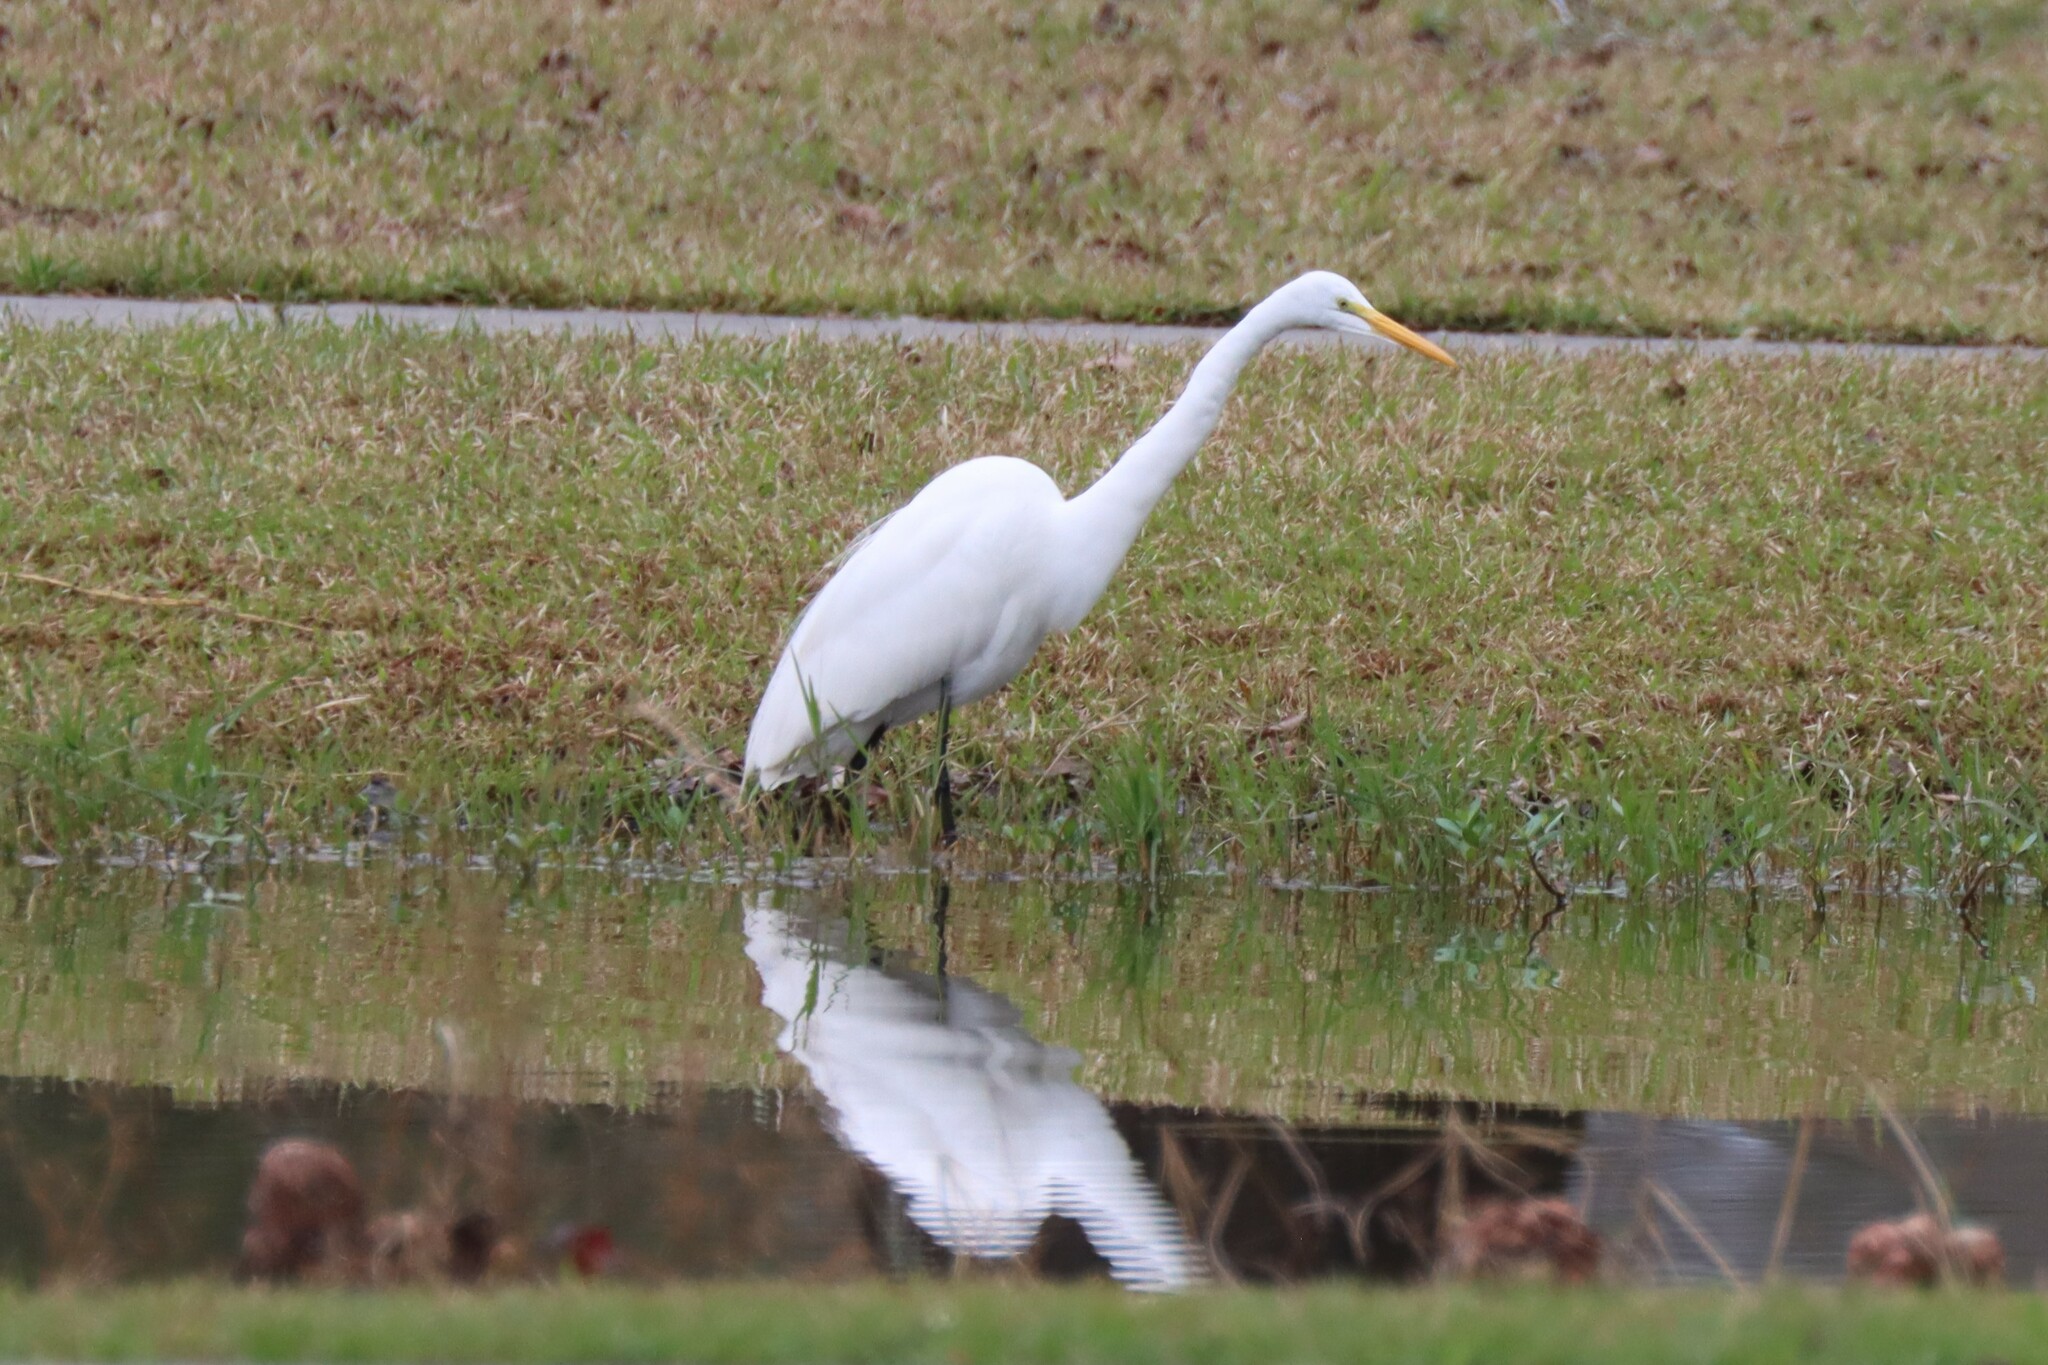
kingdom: Animalia
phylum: Chordata
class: Aves
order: Pelecaniformes
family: Ardeidae
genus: Ardea
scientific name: Ardea alba
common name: Great egret
